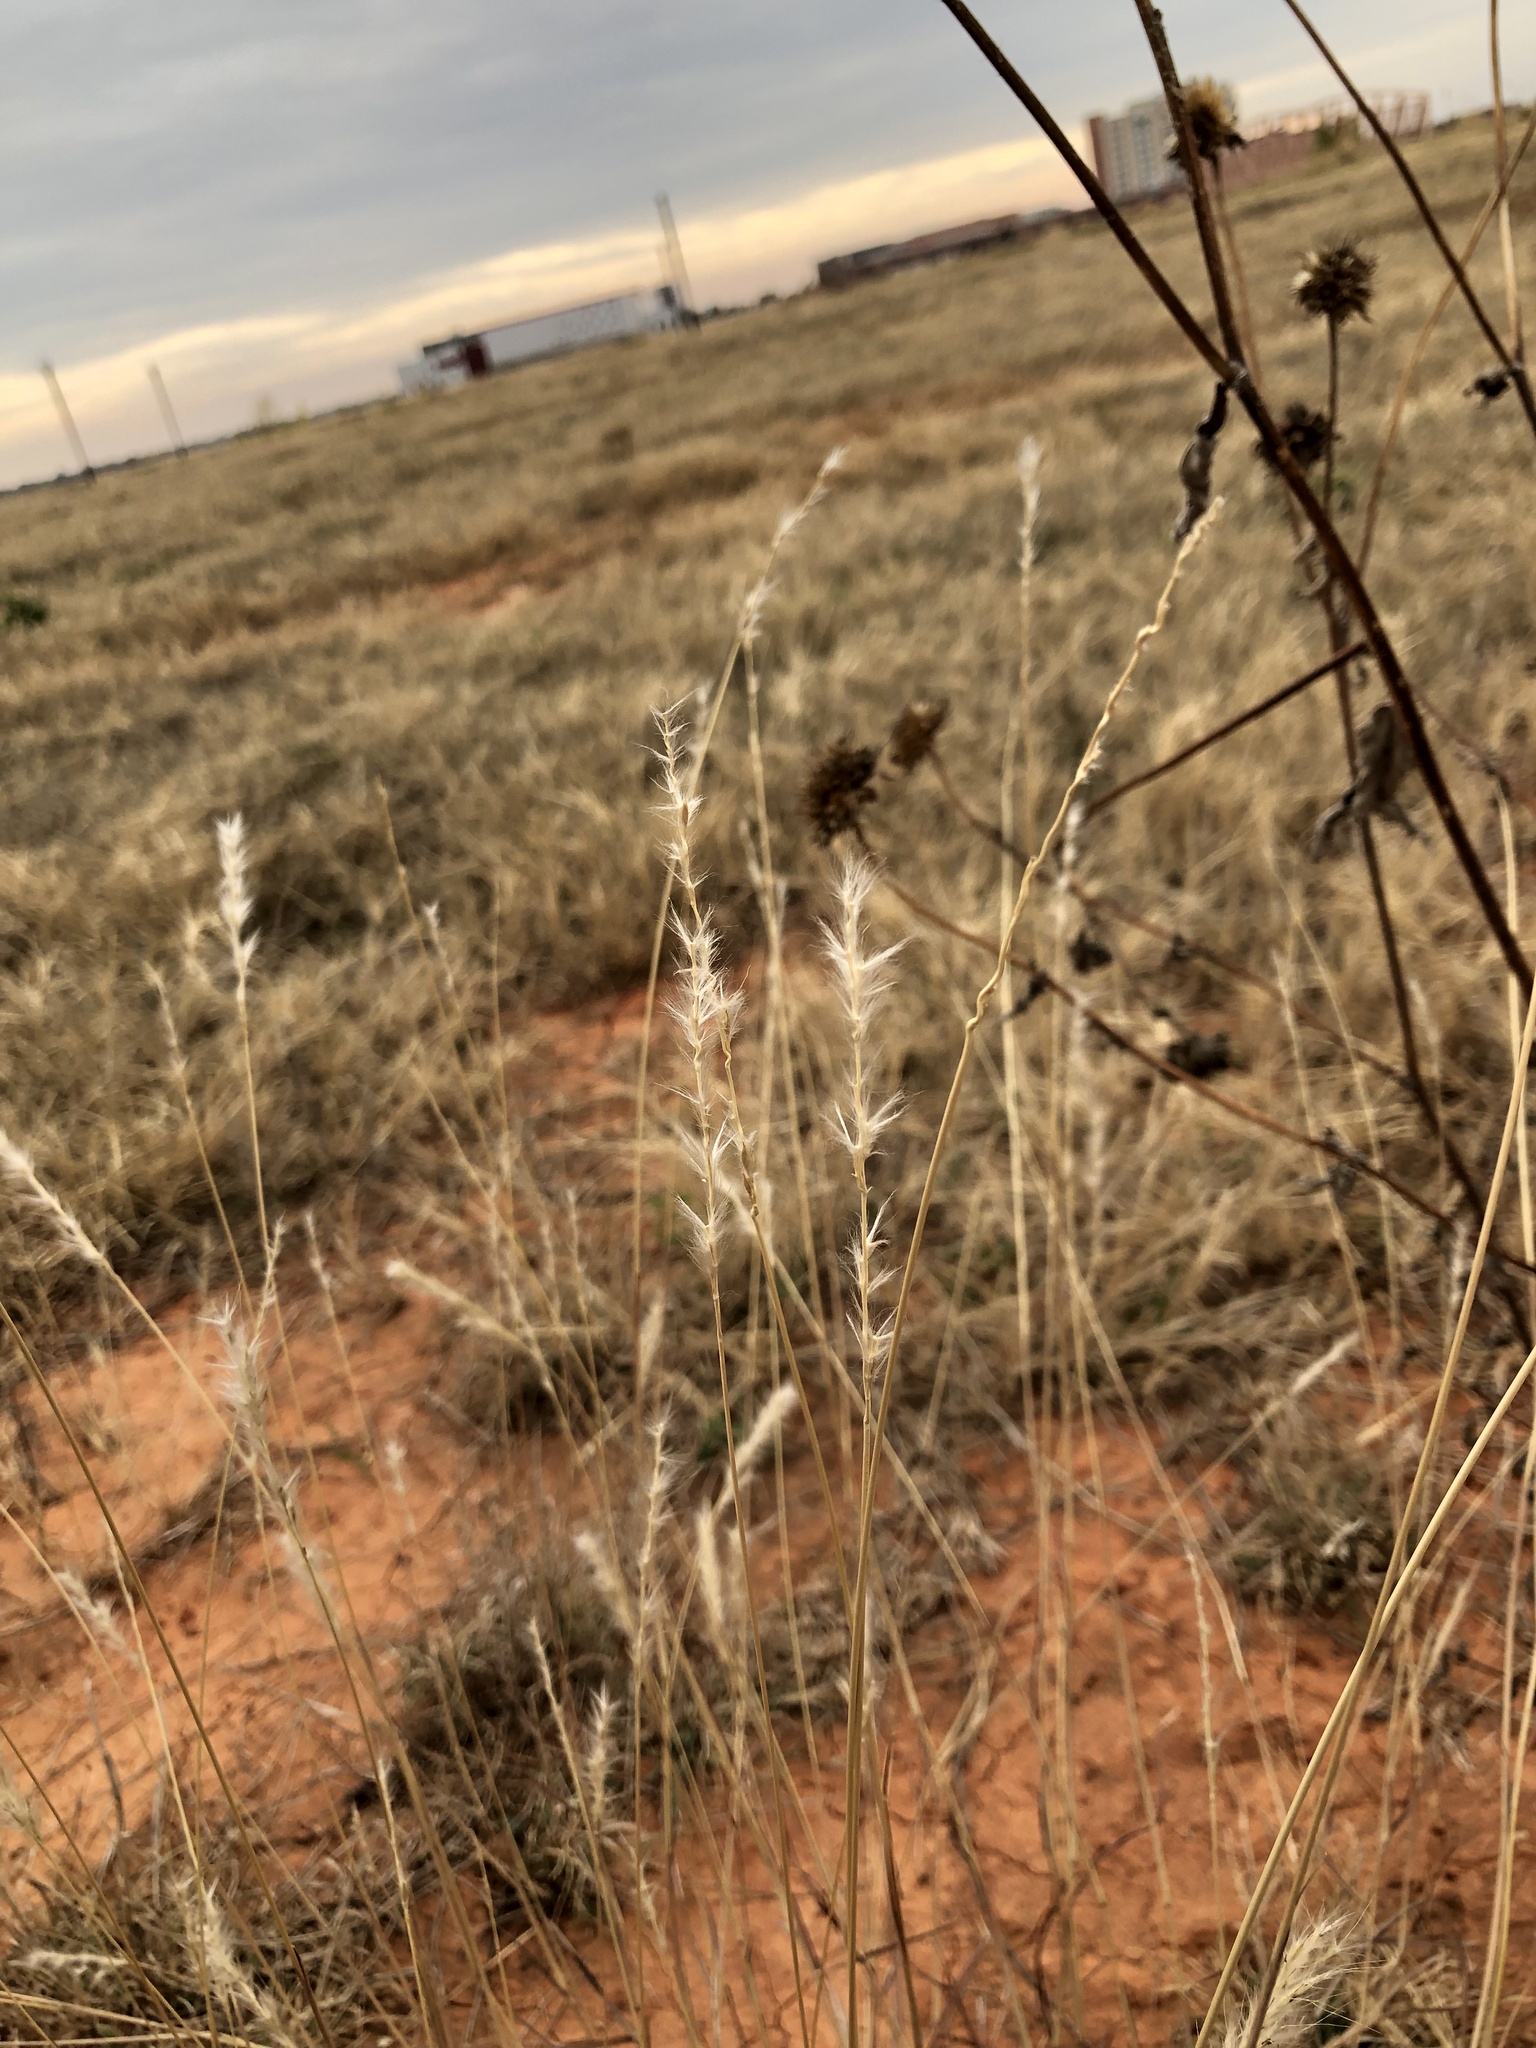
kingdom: Plantae
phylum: Tracheophyta
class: Liliopsida
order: Poales
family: Poaceae
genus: Bothriochloa
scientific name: Bothriochloa torreyana
